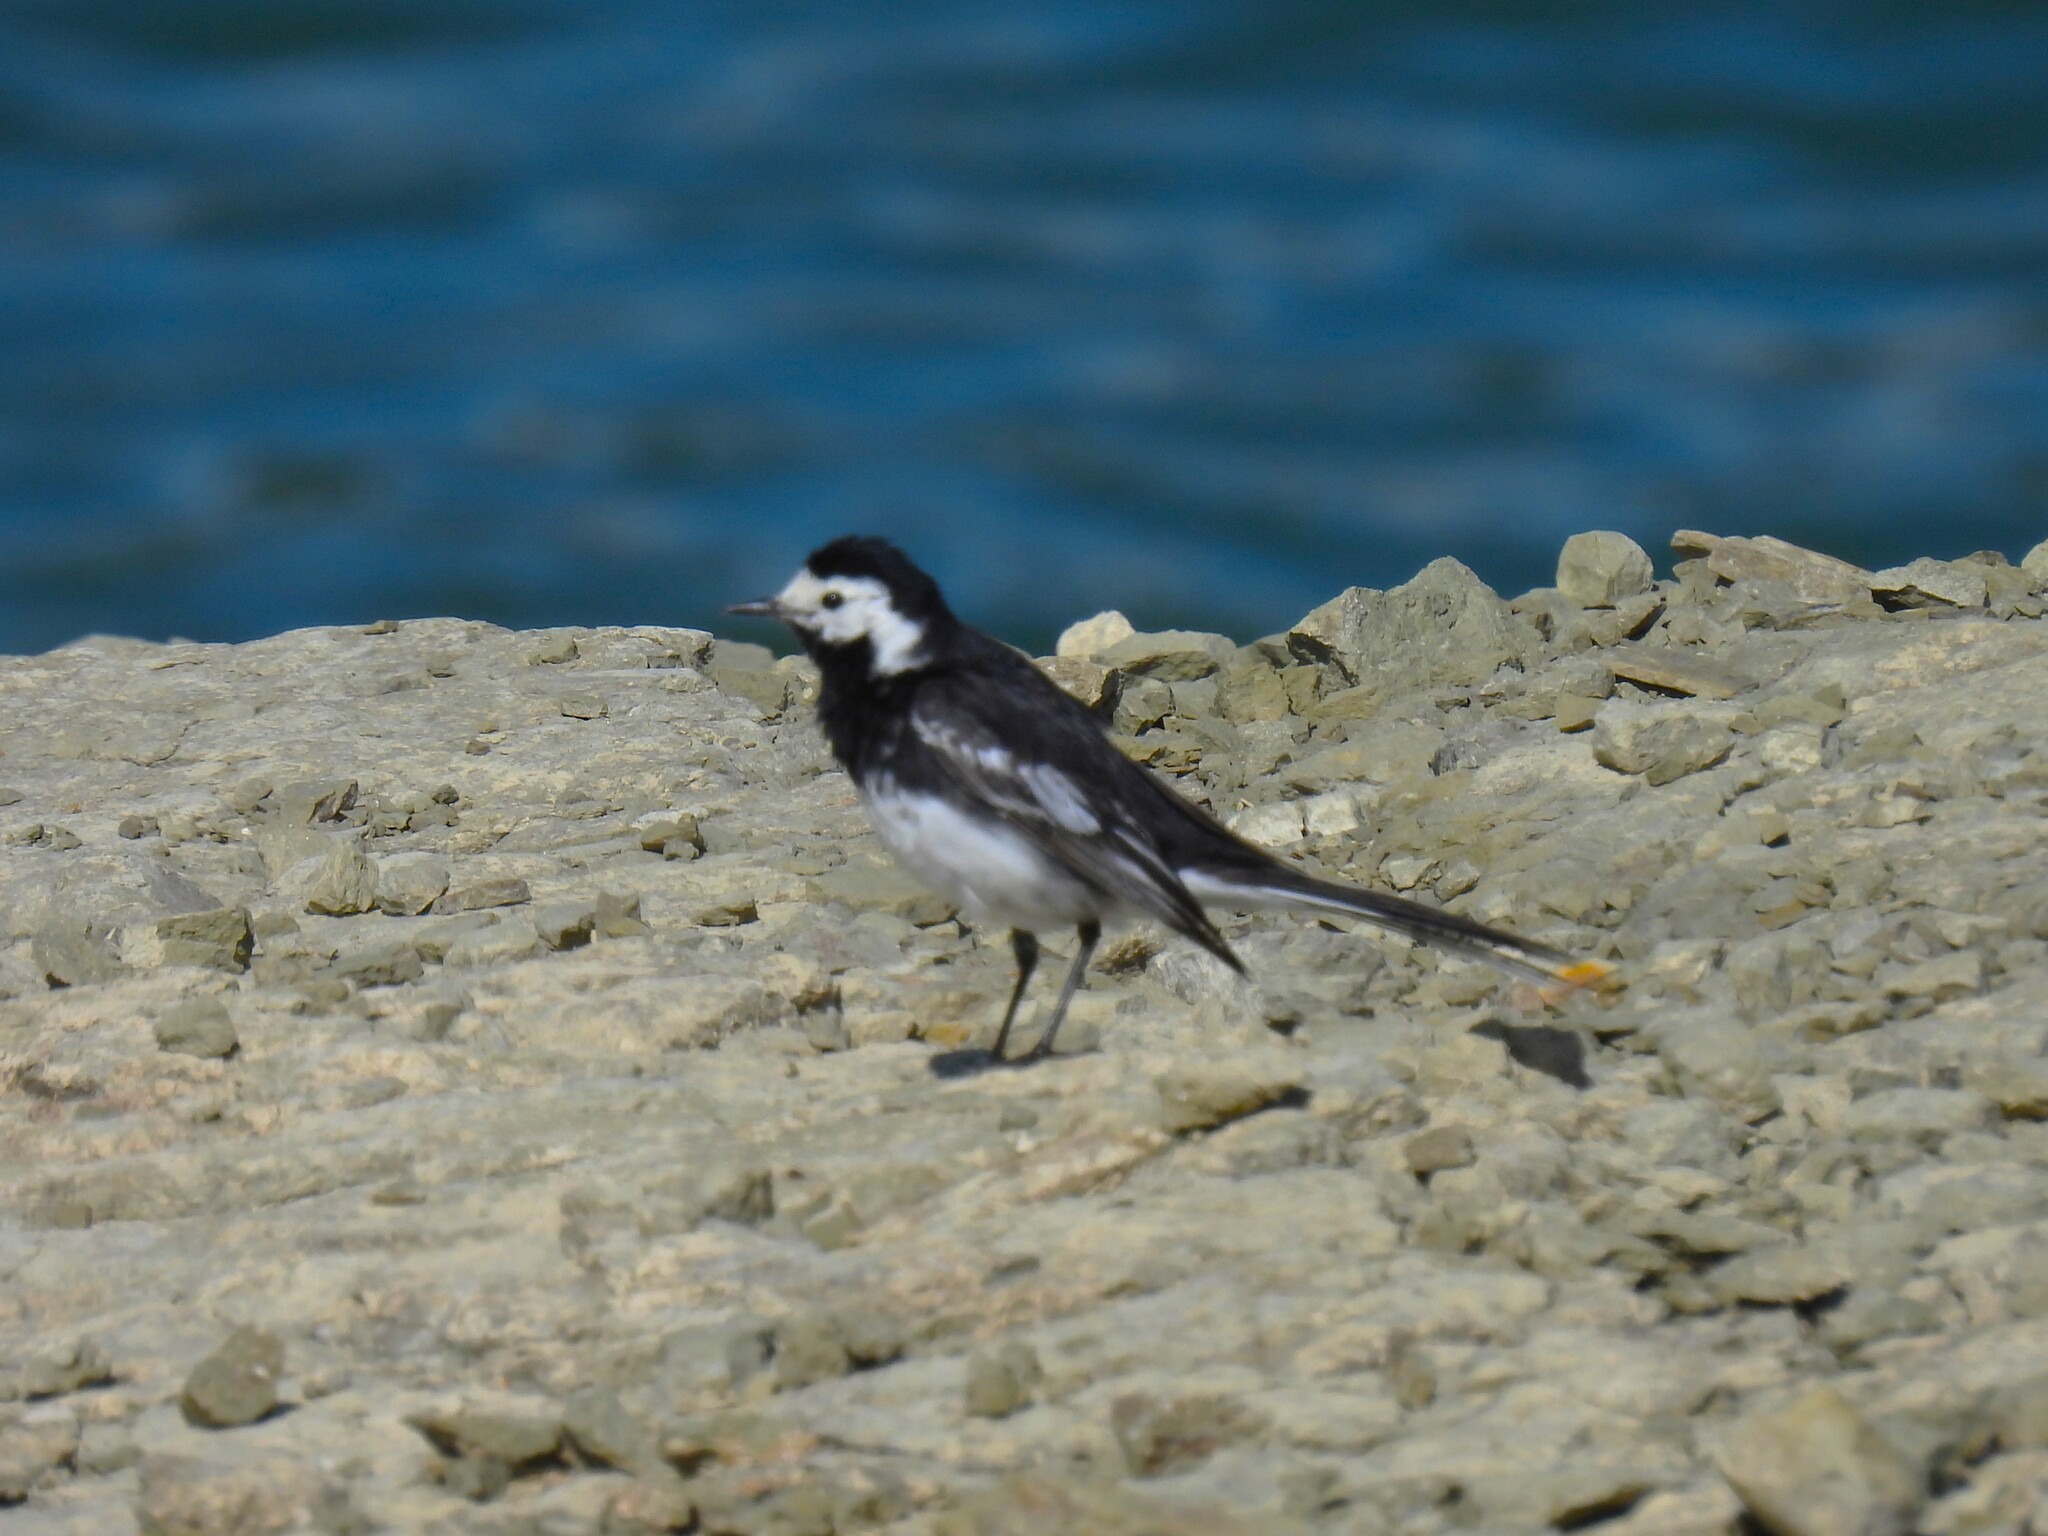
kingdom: Animalia
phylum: Chordata
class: Aves
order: Passeriformes
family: Motacillidae
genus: Motacilla
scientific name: Motacilla alba
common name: White wagtail
